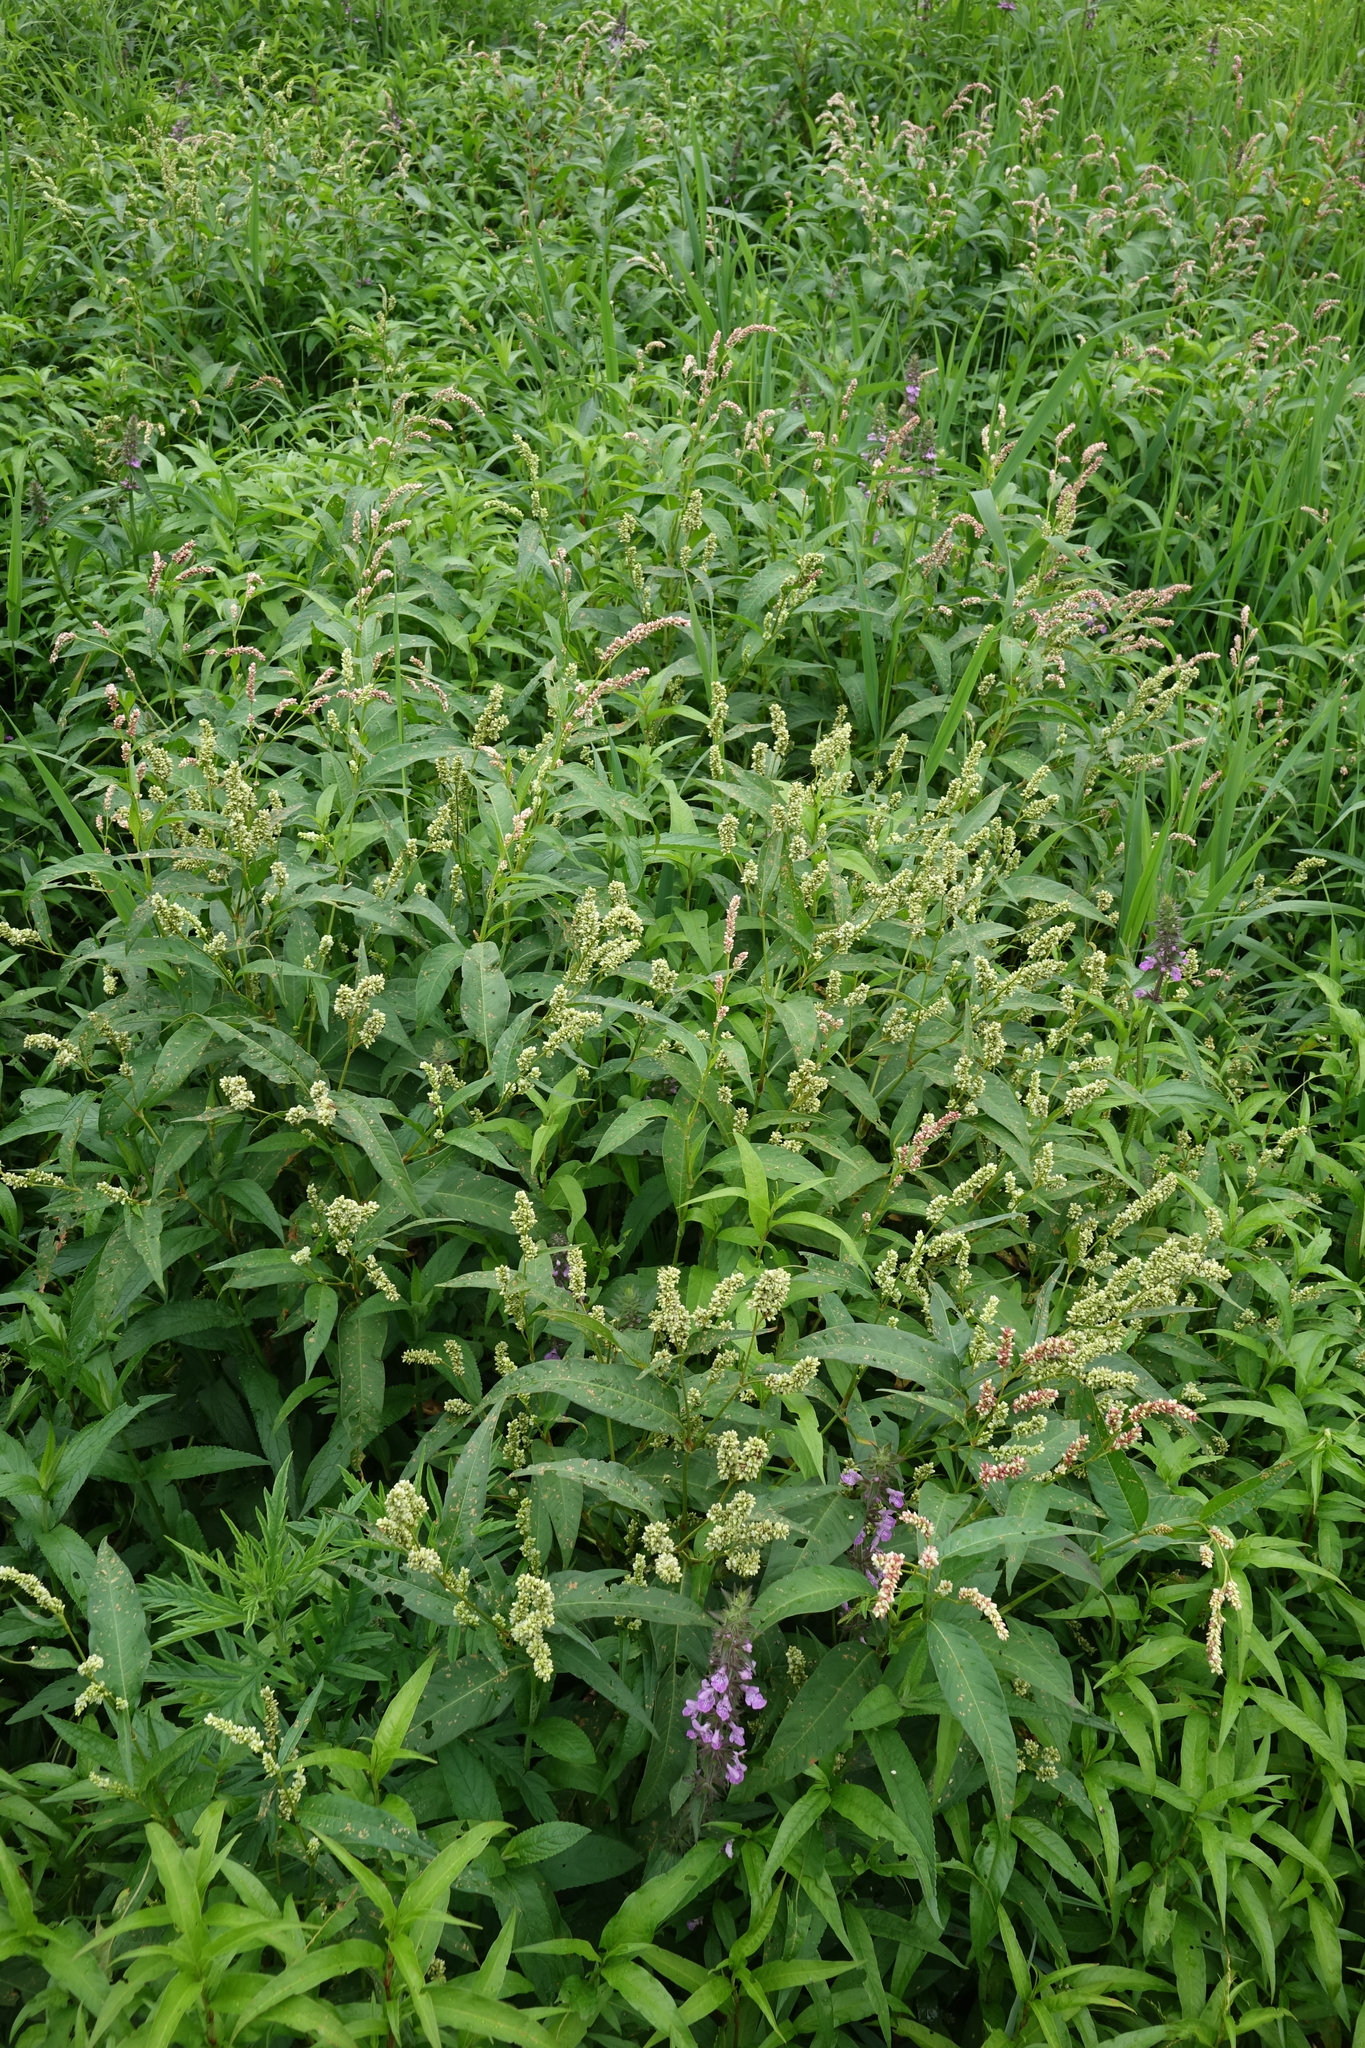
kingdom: Plantae
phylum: Tracheophyta
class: Magnoliopsida
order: Caryophyllales
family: Polygonaceae
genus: Persicaria
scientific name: Persicaria lapathifolia
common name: Curlytop knotweed
